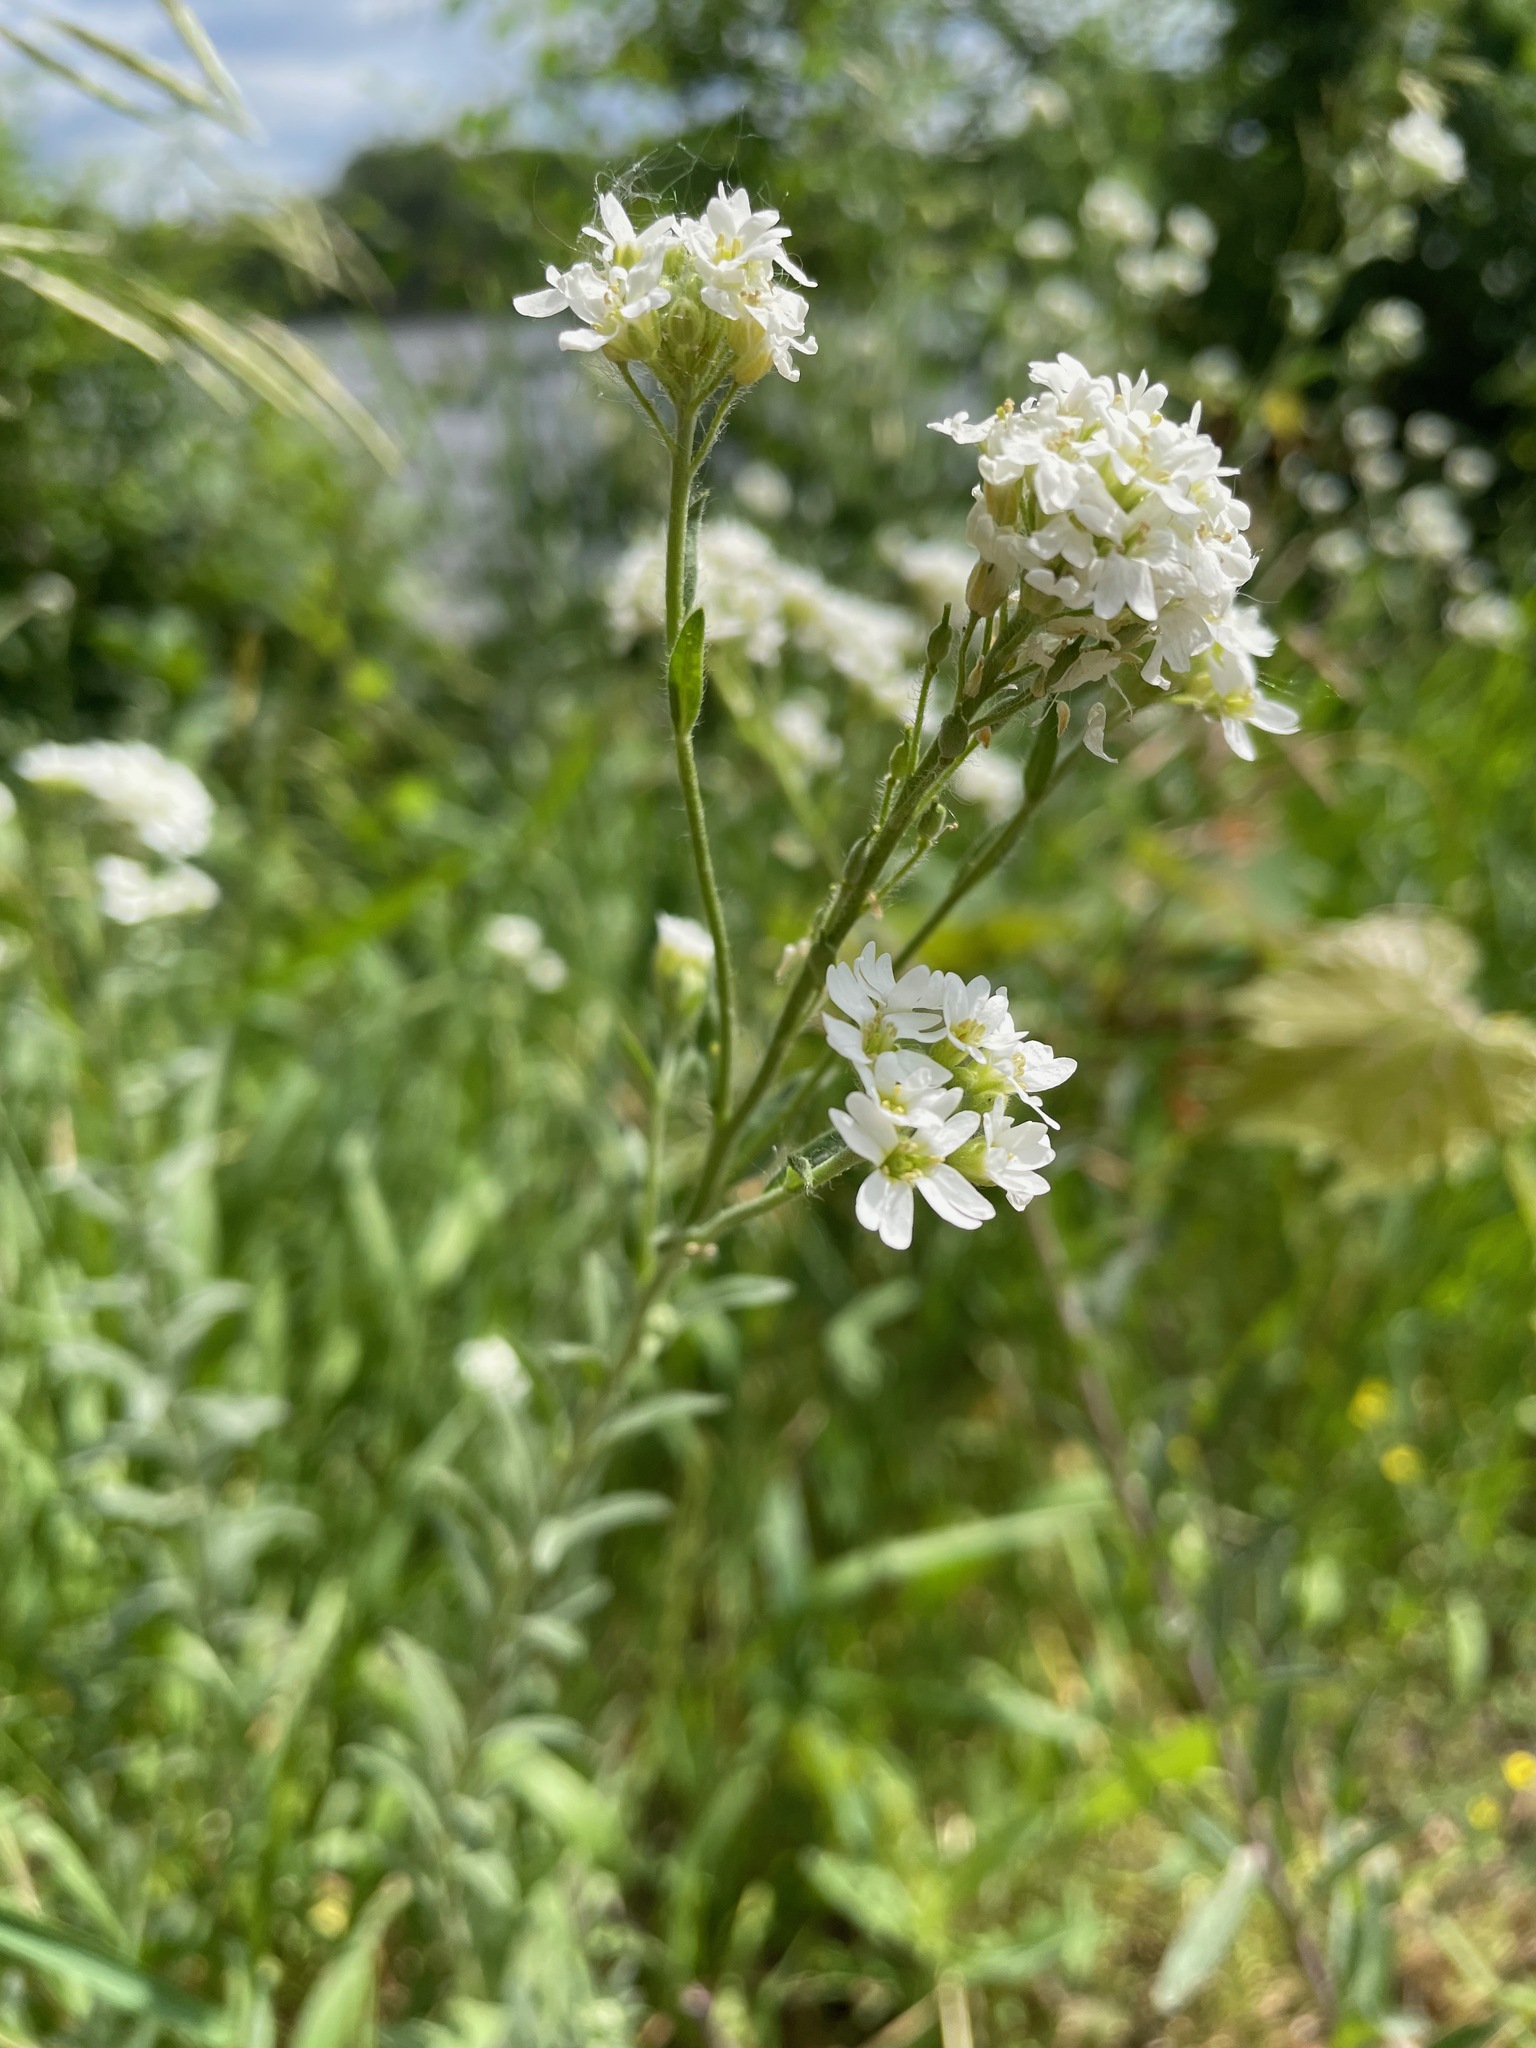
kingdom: Plantae
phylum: Tracheophyta
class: Magnoliopsida
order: Brassicales
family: Brassicaceae
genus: Berteroa
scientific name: Berteroa incana
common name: Hoary alison
